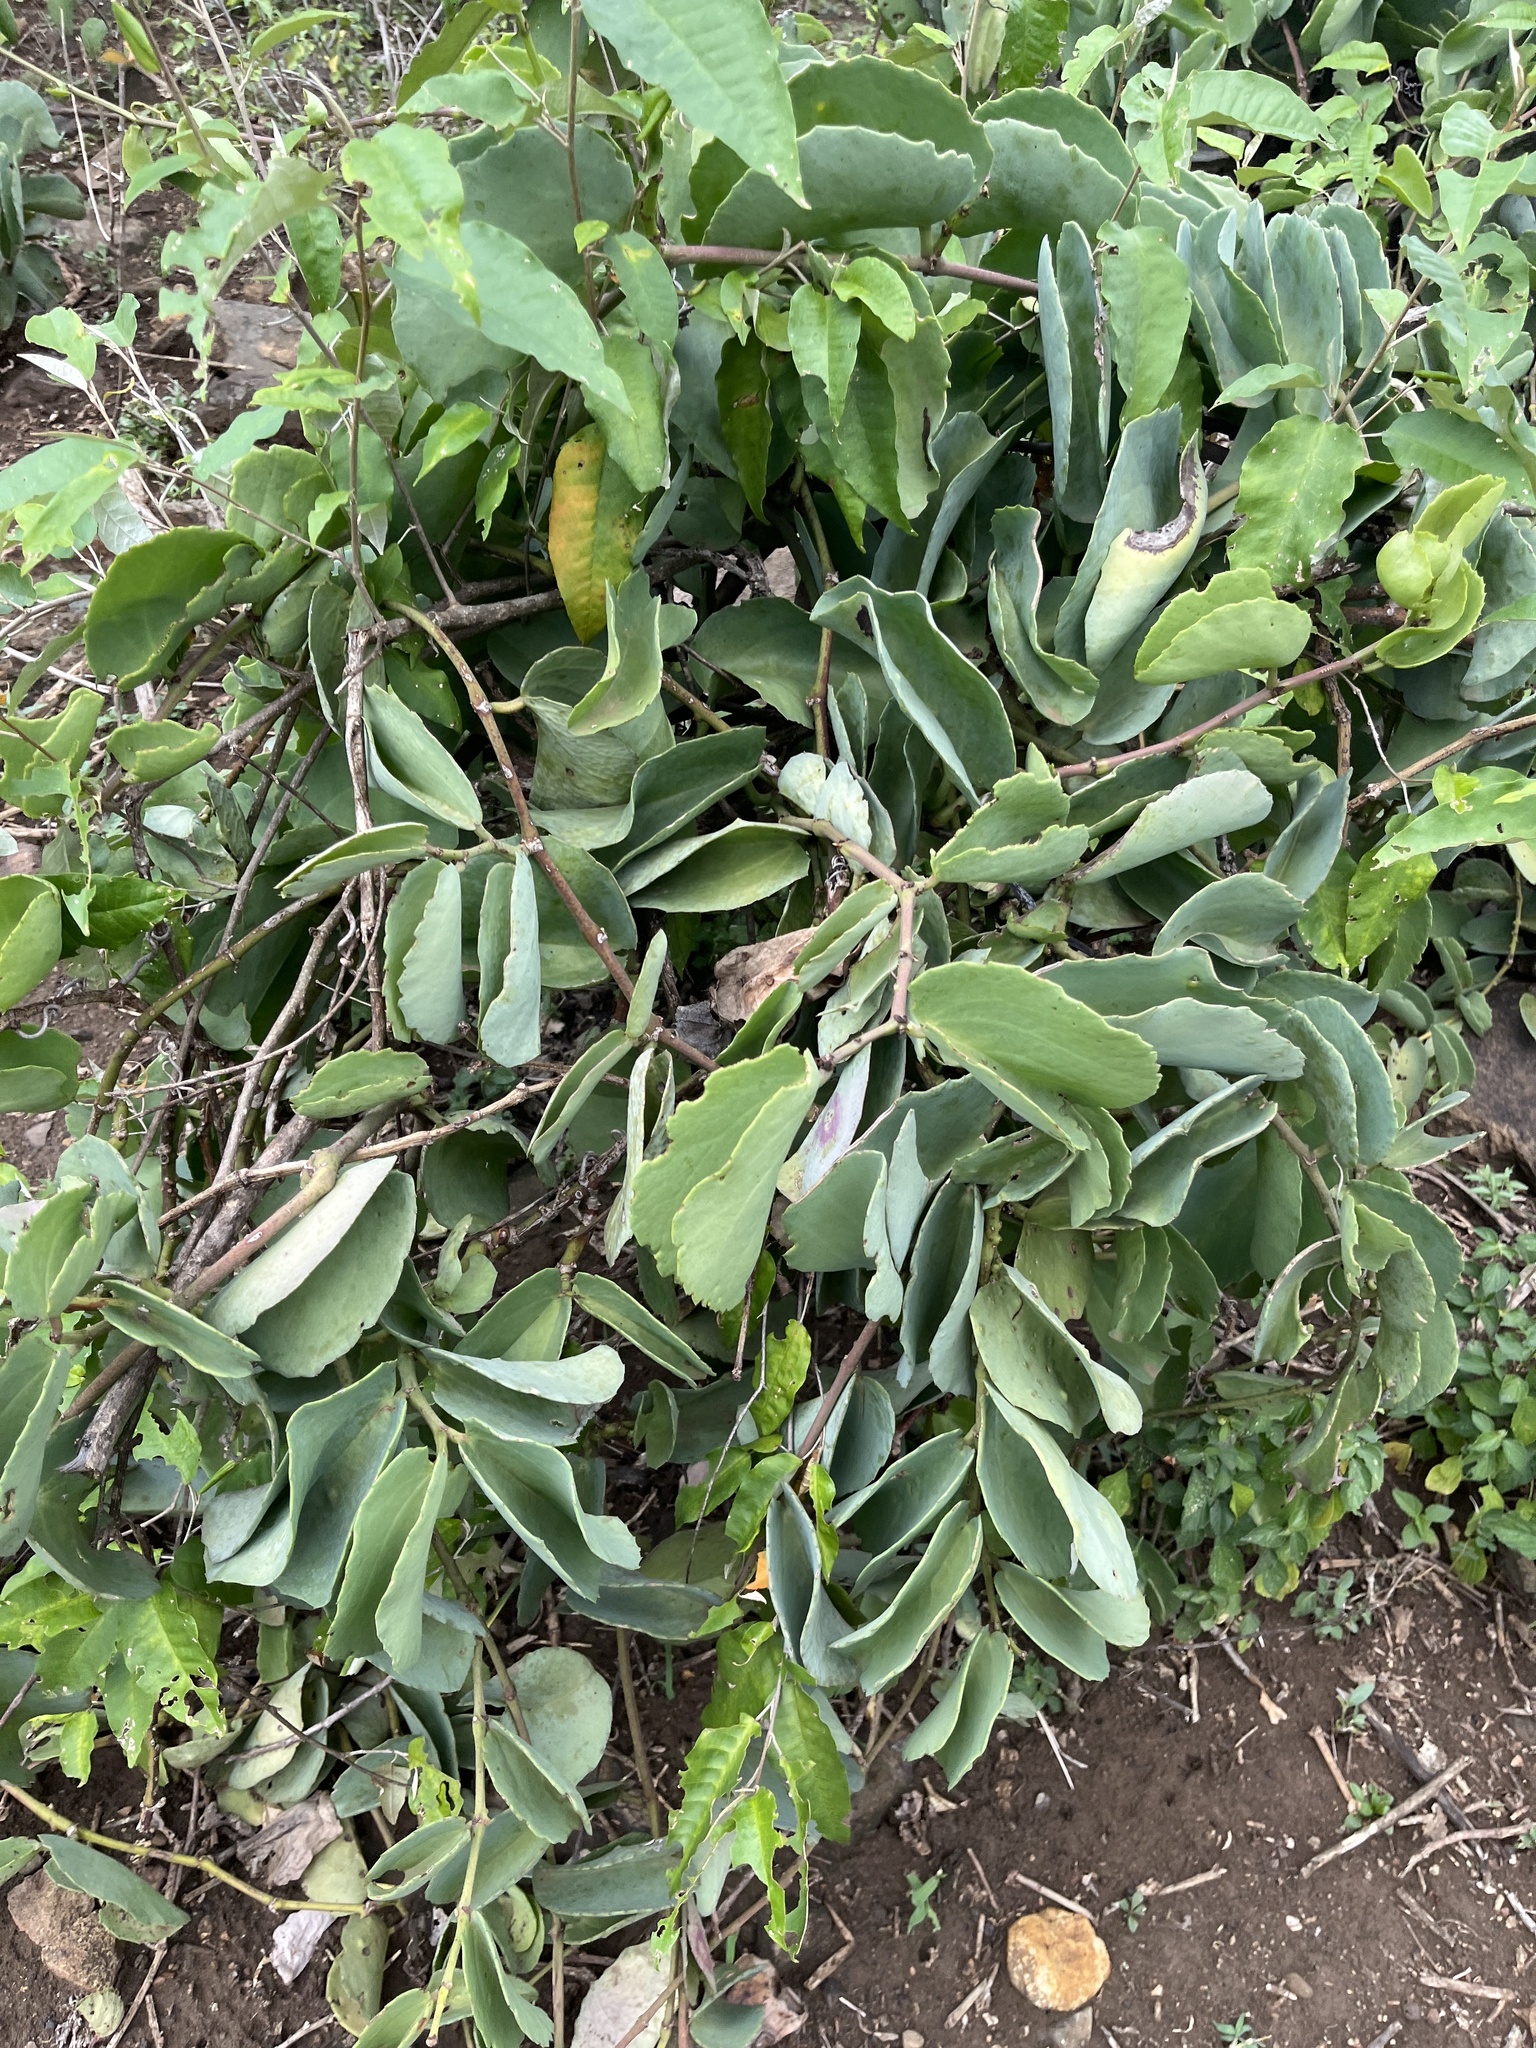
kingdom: Plantae
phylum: Tracheophyta
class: Magnoliopsida
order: Vitales
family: Vitaceae
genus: Cissus
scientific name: Cissus rotundifolia
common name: Arabian wax cissus
